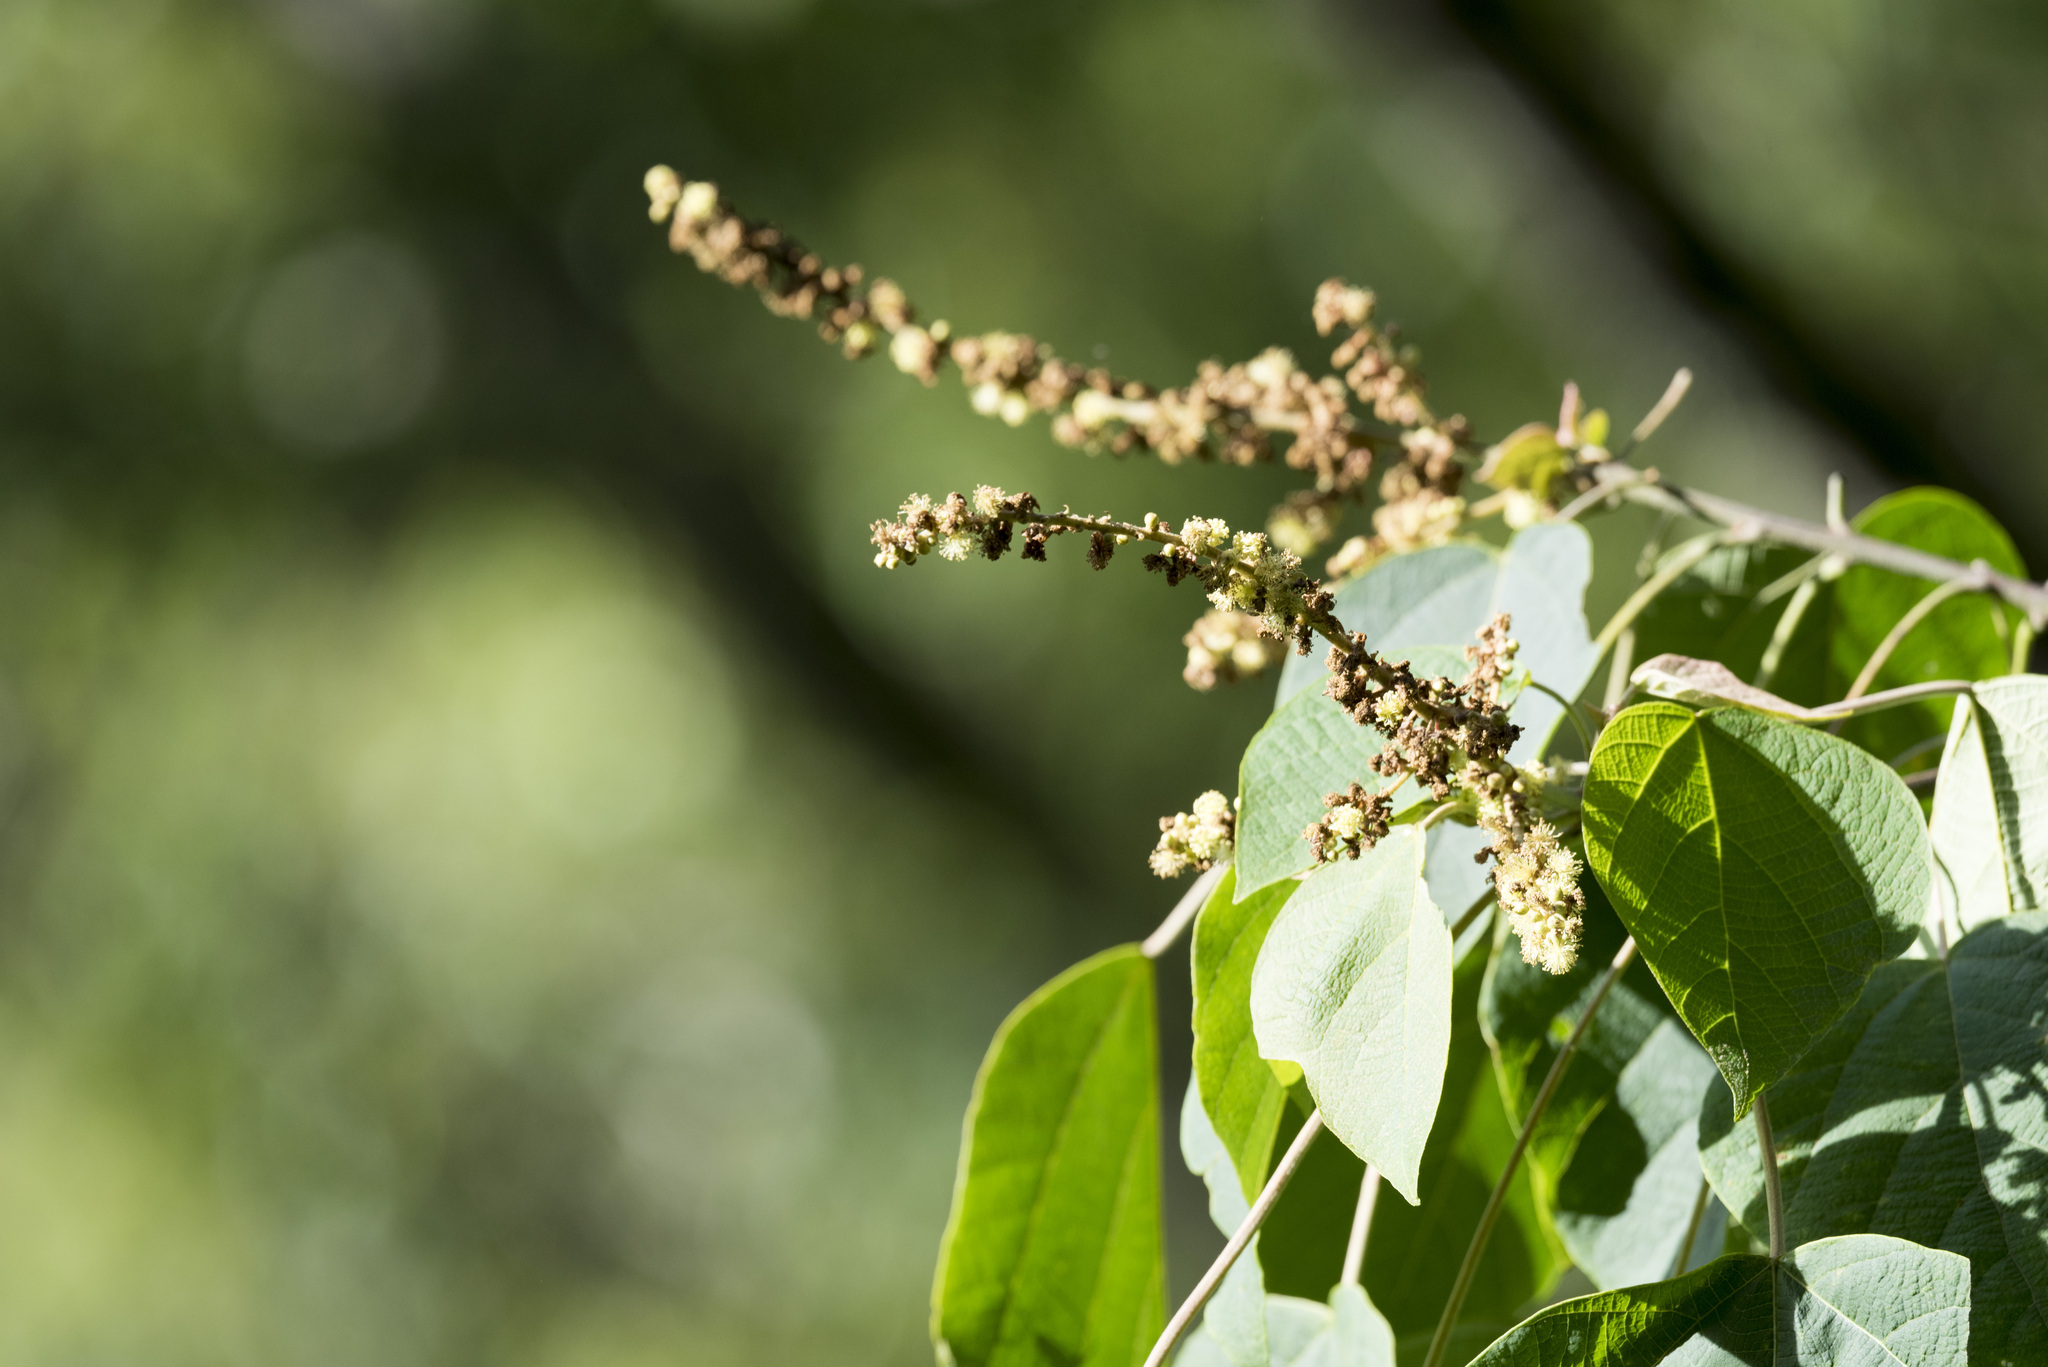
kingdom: Plantae
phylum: Tracheophyta
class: Magnoliopsida
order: Malpighiales
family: Euphorbiaceae
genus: Mallotus
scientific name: Mallotus paniculatus
